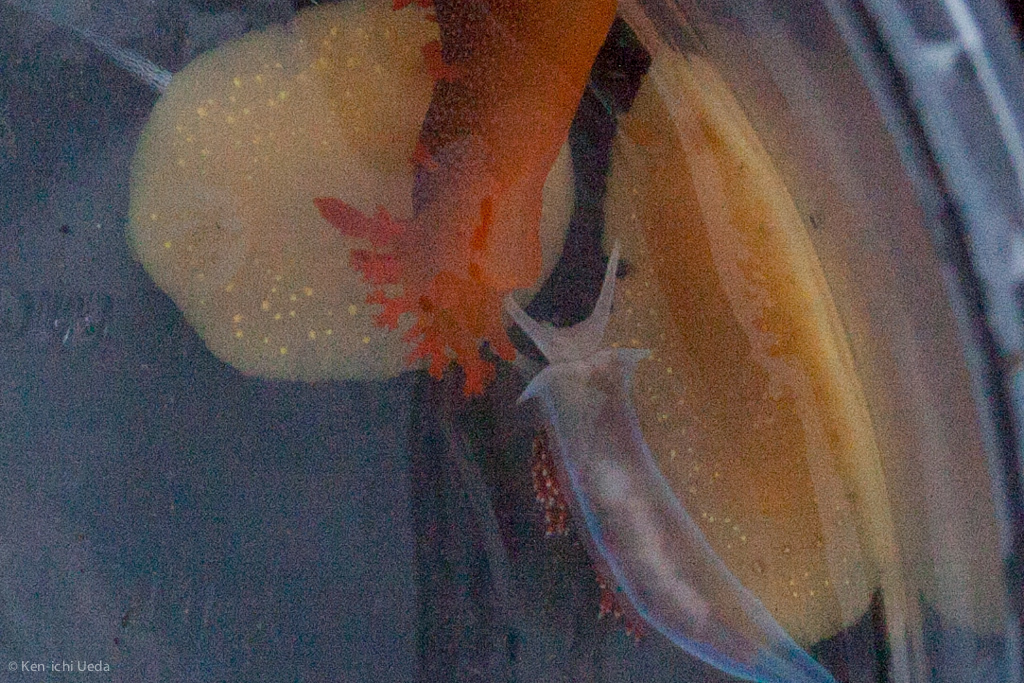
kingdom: Animalia
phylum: Mollusca
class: Gastropoda
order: Nudibranchia
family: Cadlinidae
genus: Cadlina
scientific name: Cadlina modesta
